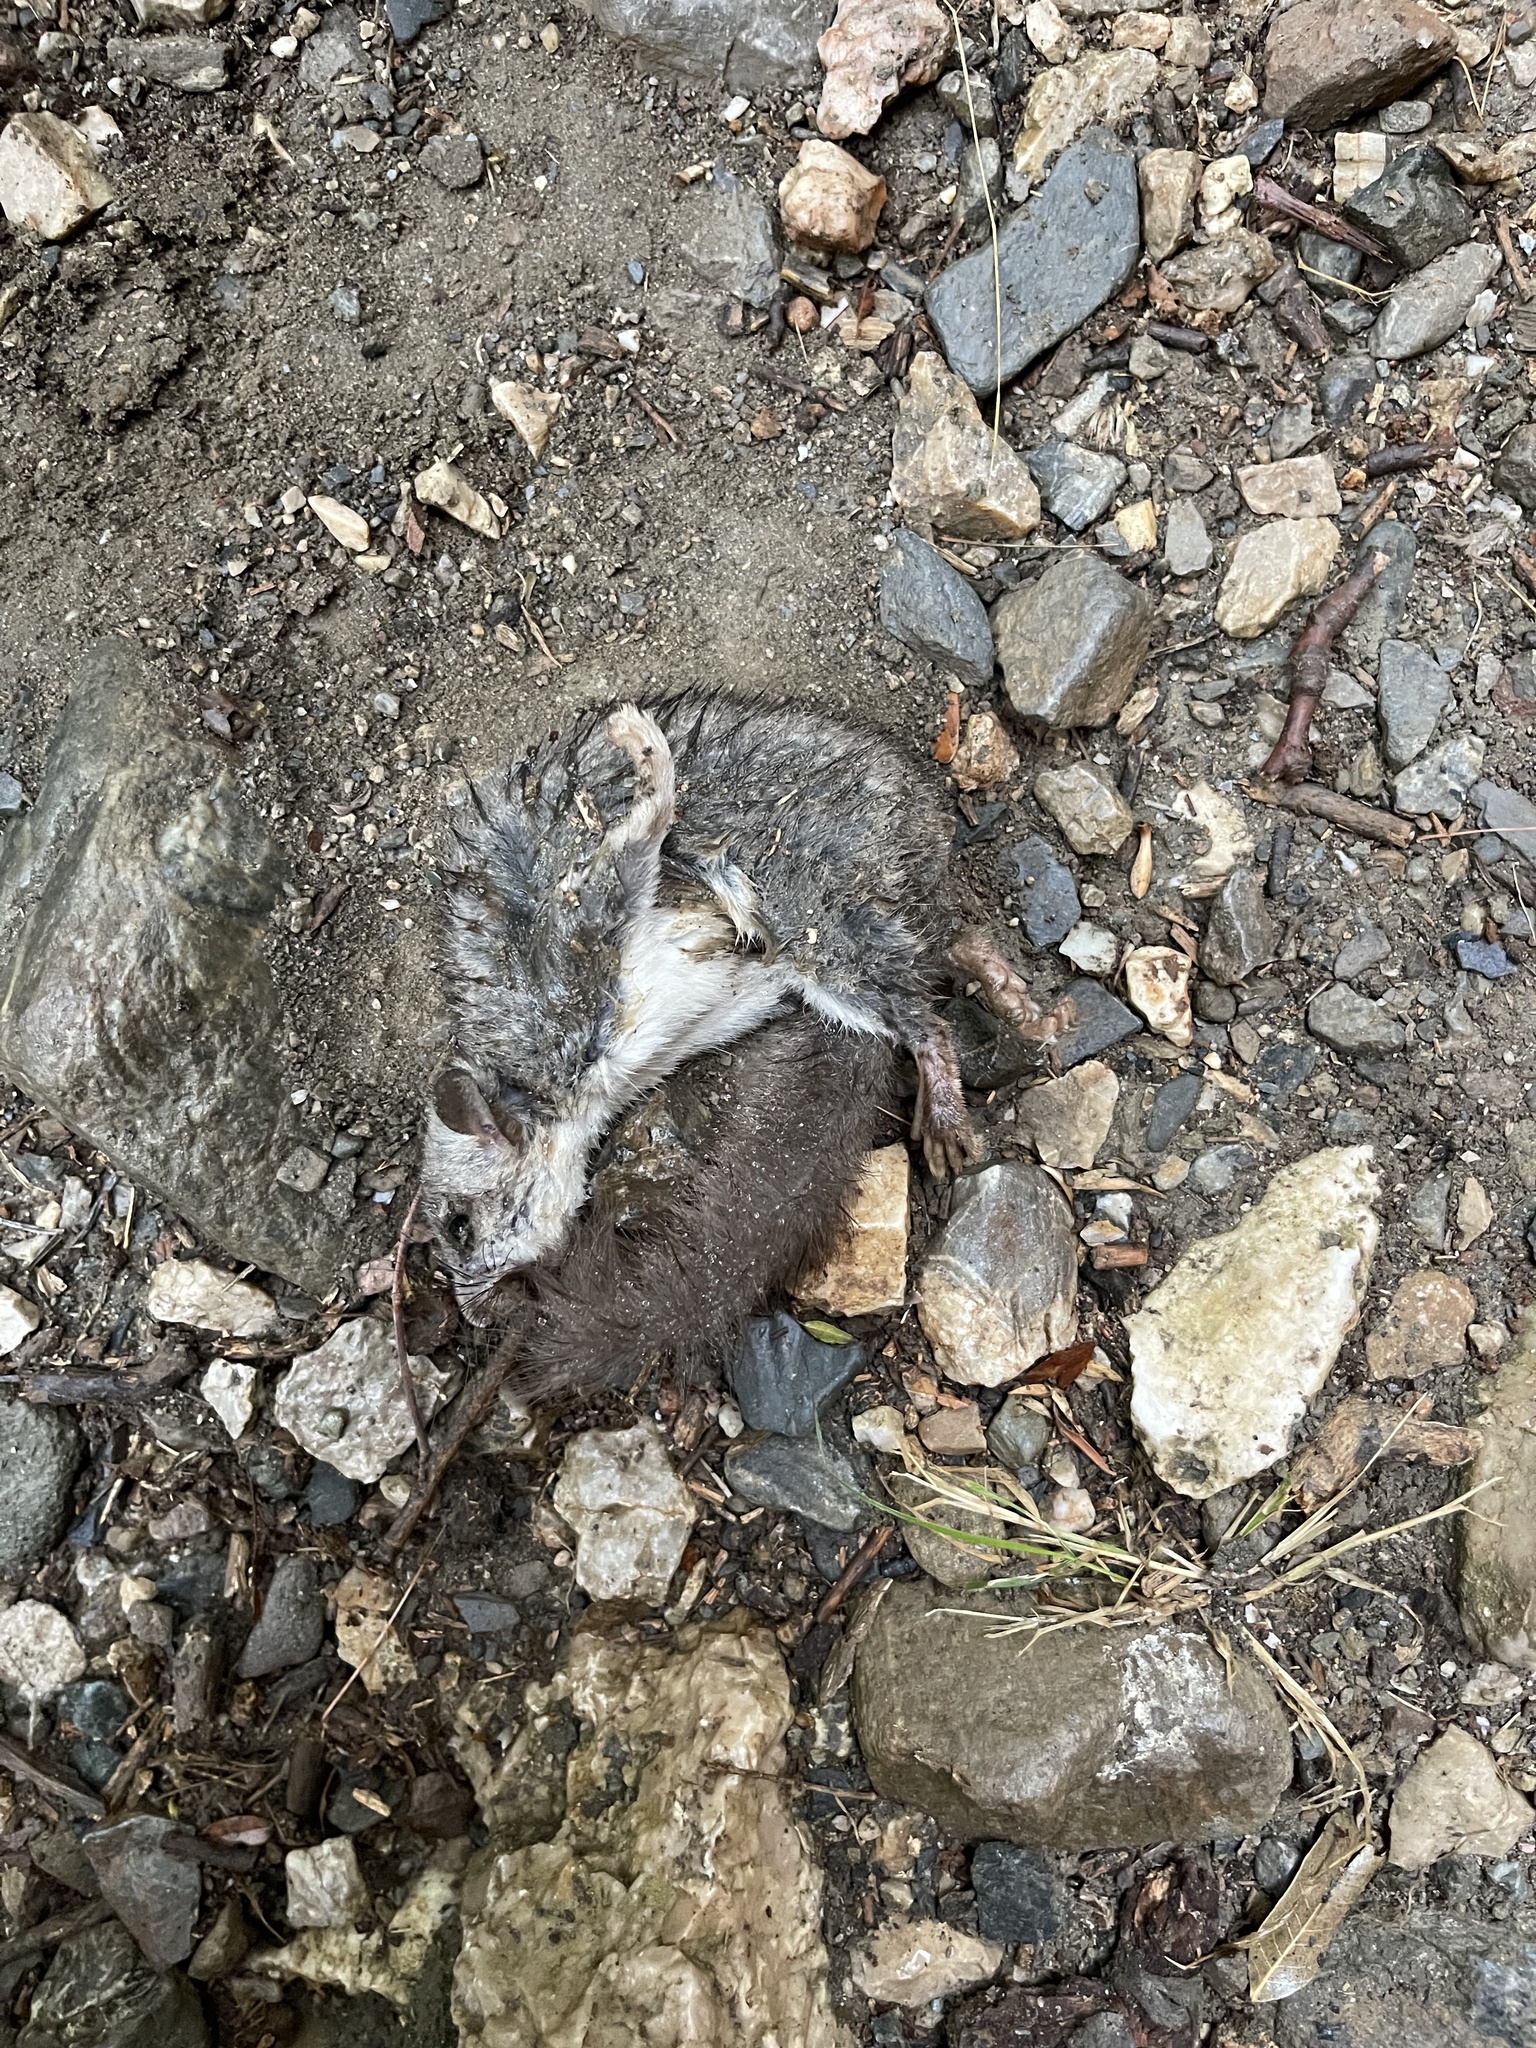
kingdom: Animalia
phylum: Chordata
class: Mammalia
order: Rodentia
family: Gliridae
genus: Glis
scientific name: Glis glis
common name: Fat dormouse
